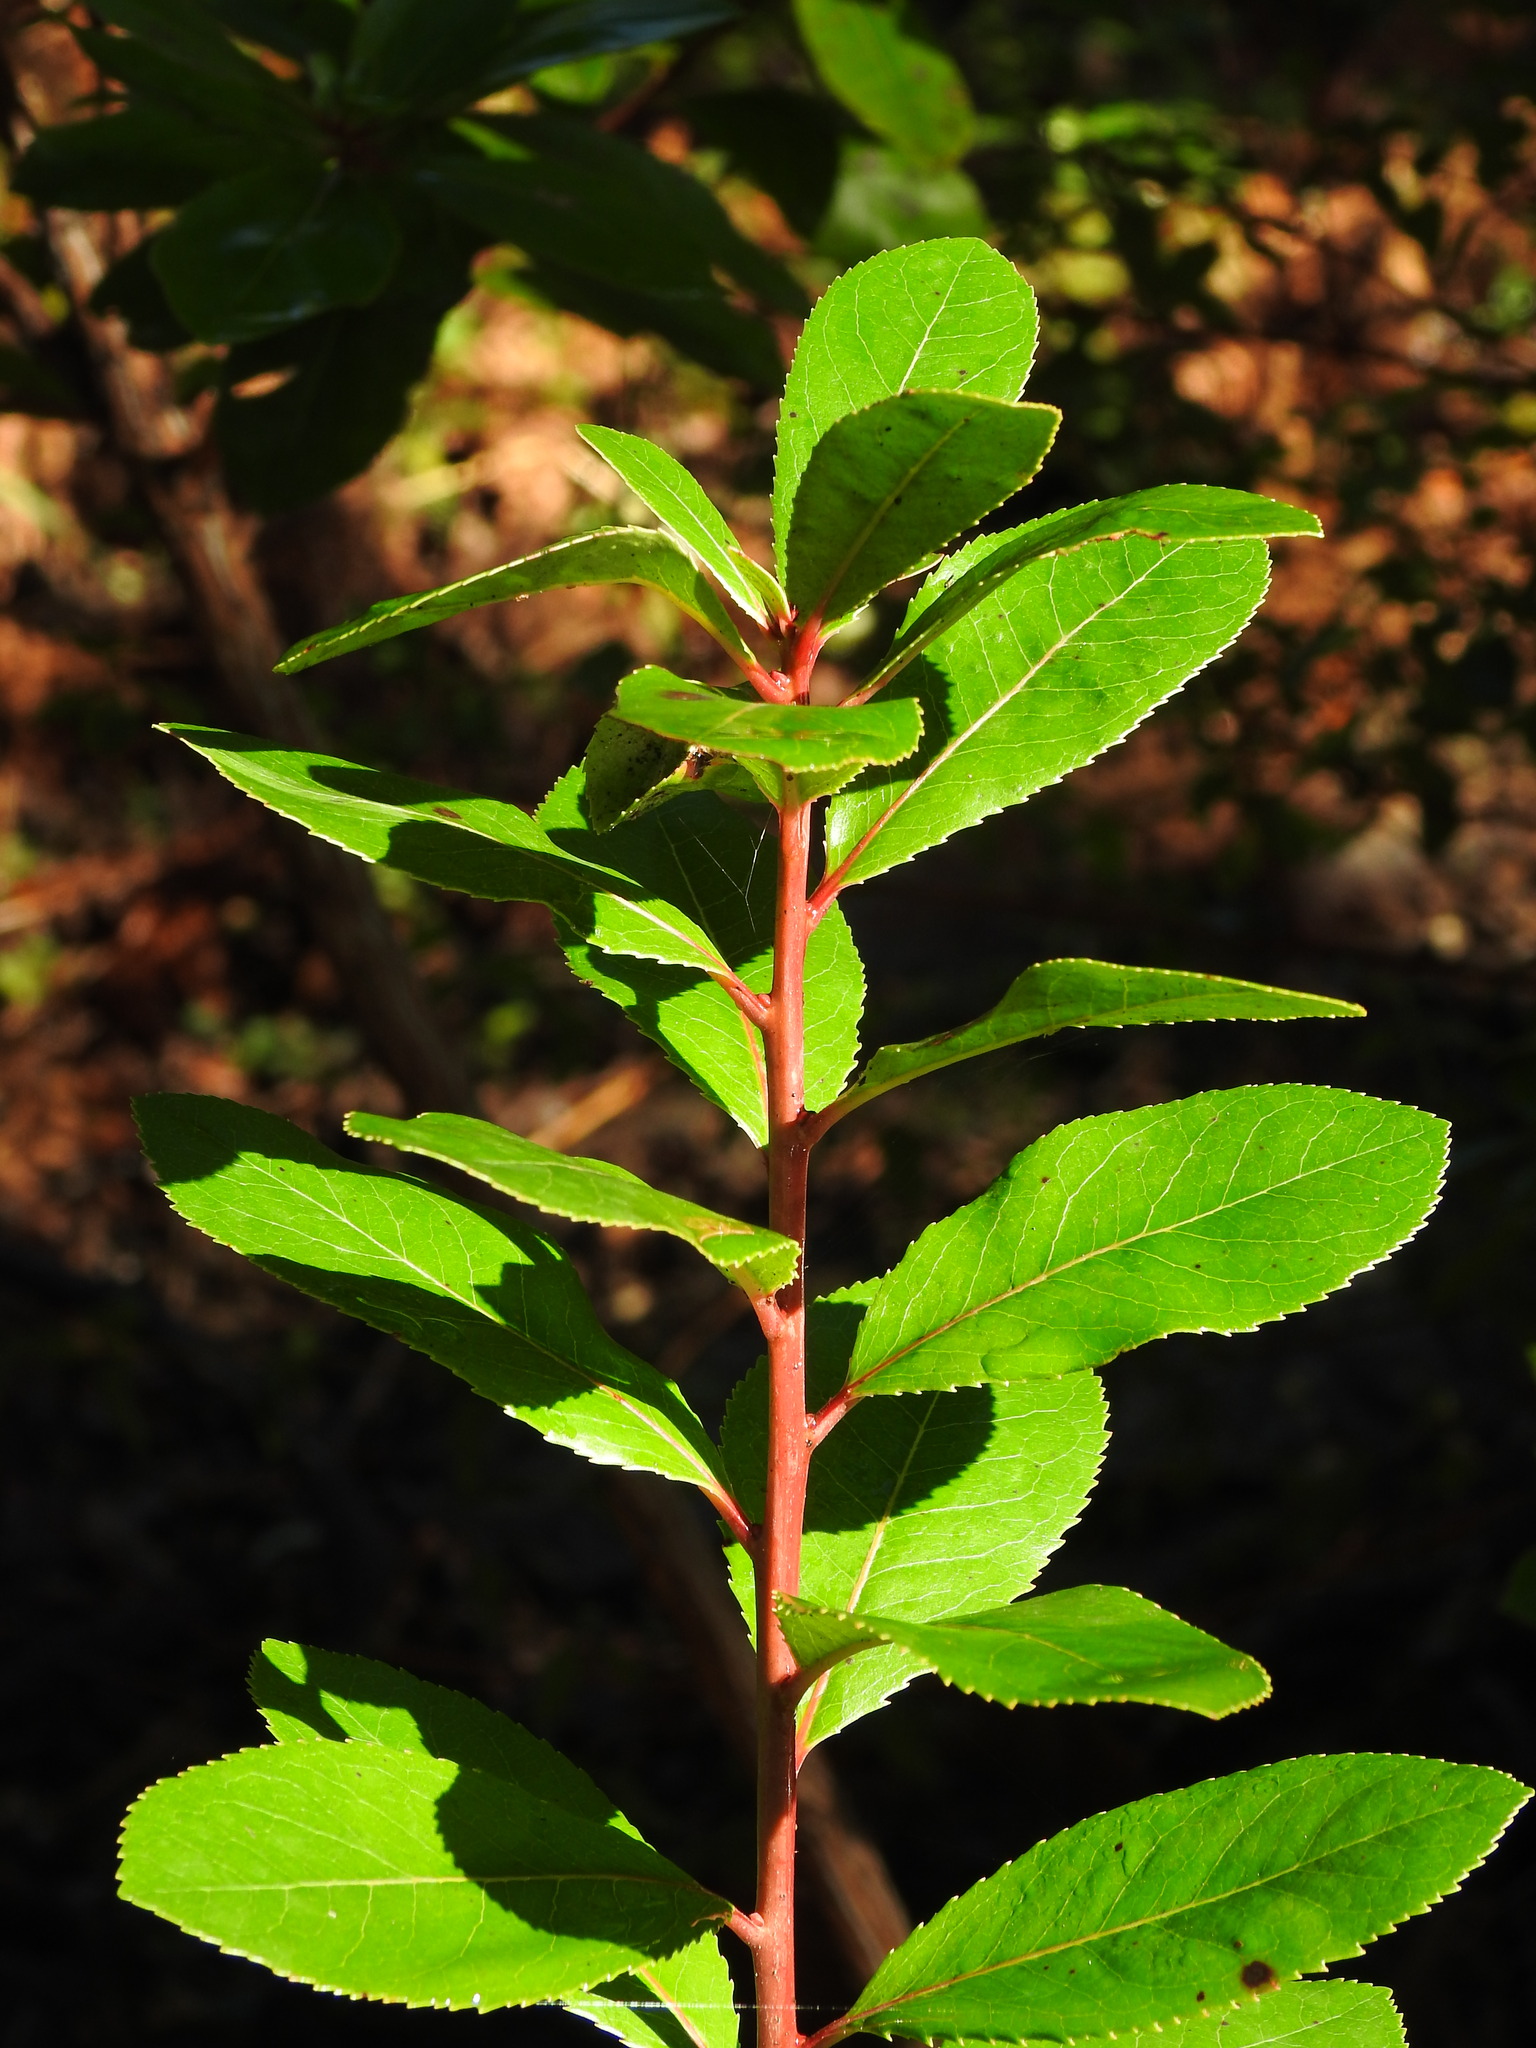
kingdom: Plantae
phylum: Tracheophyta
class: Magnoliopsida
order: Ericales
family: Ericaceae
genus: Arbutus
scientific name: Arbutus unedo
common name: Strawberry-tree
